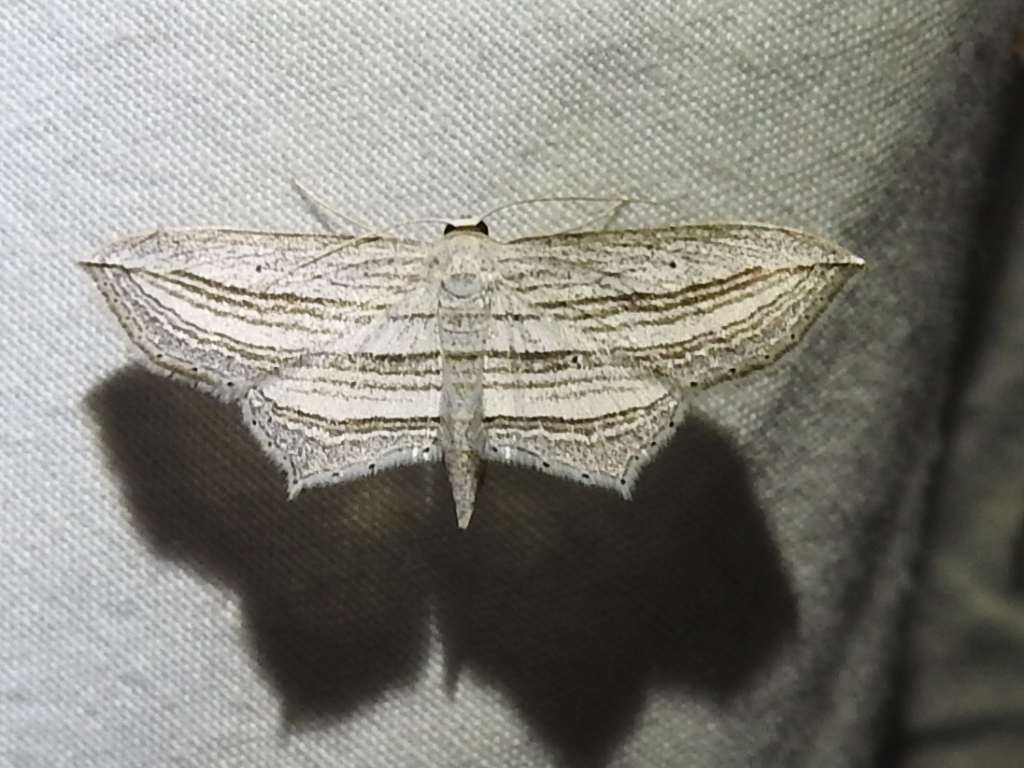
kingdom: Animalia
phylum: Arthropoda
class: Insecta
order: Lepidoptera
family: Geometridae
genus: Arcobara
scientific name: Arcobara multilineata
